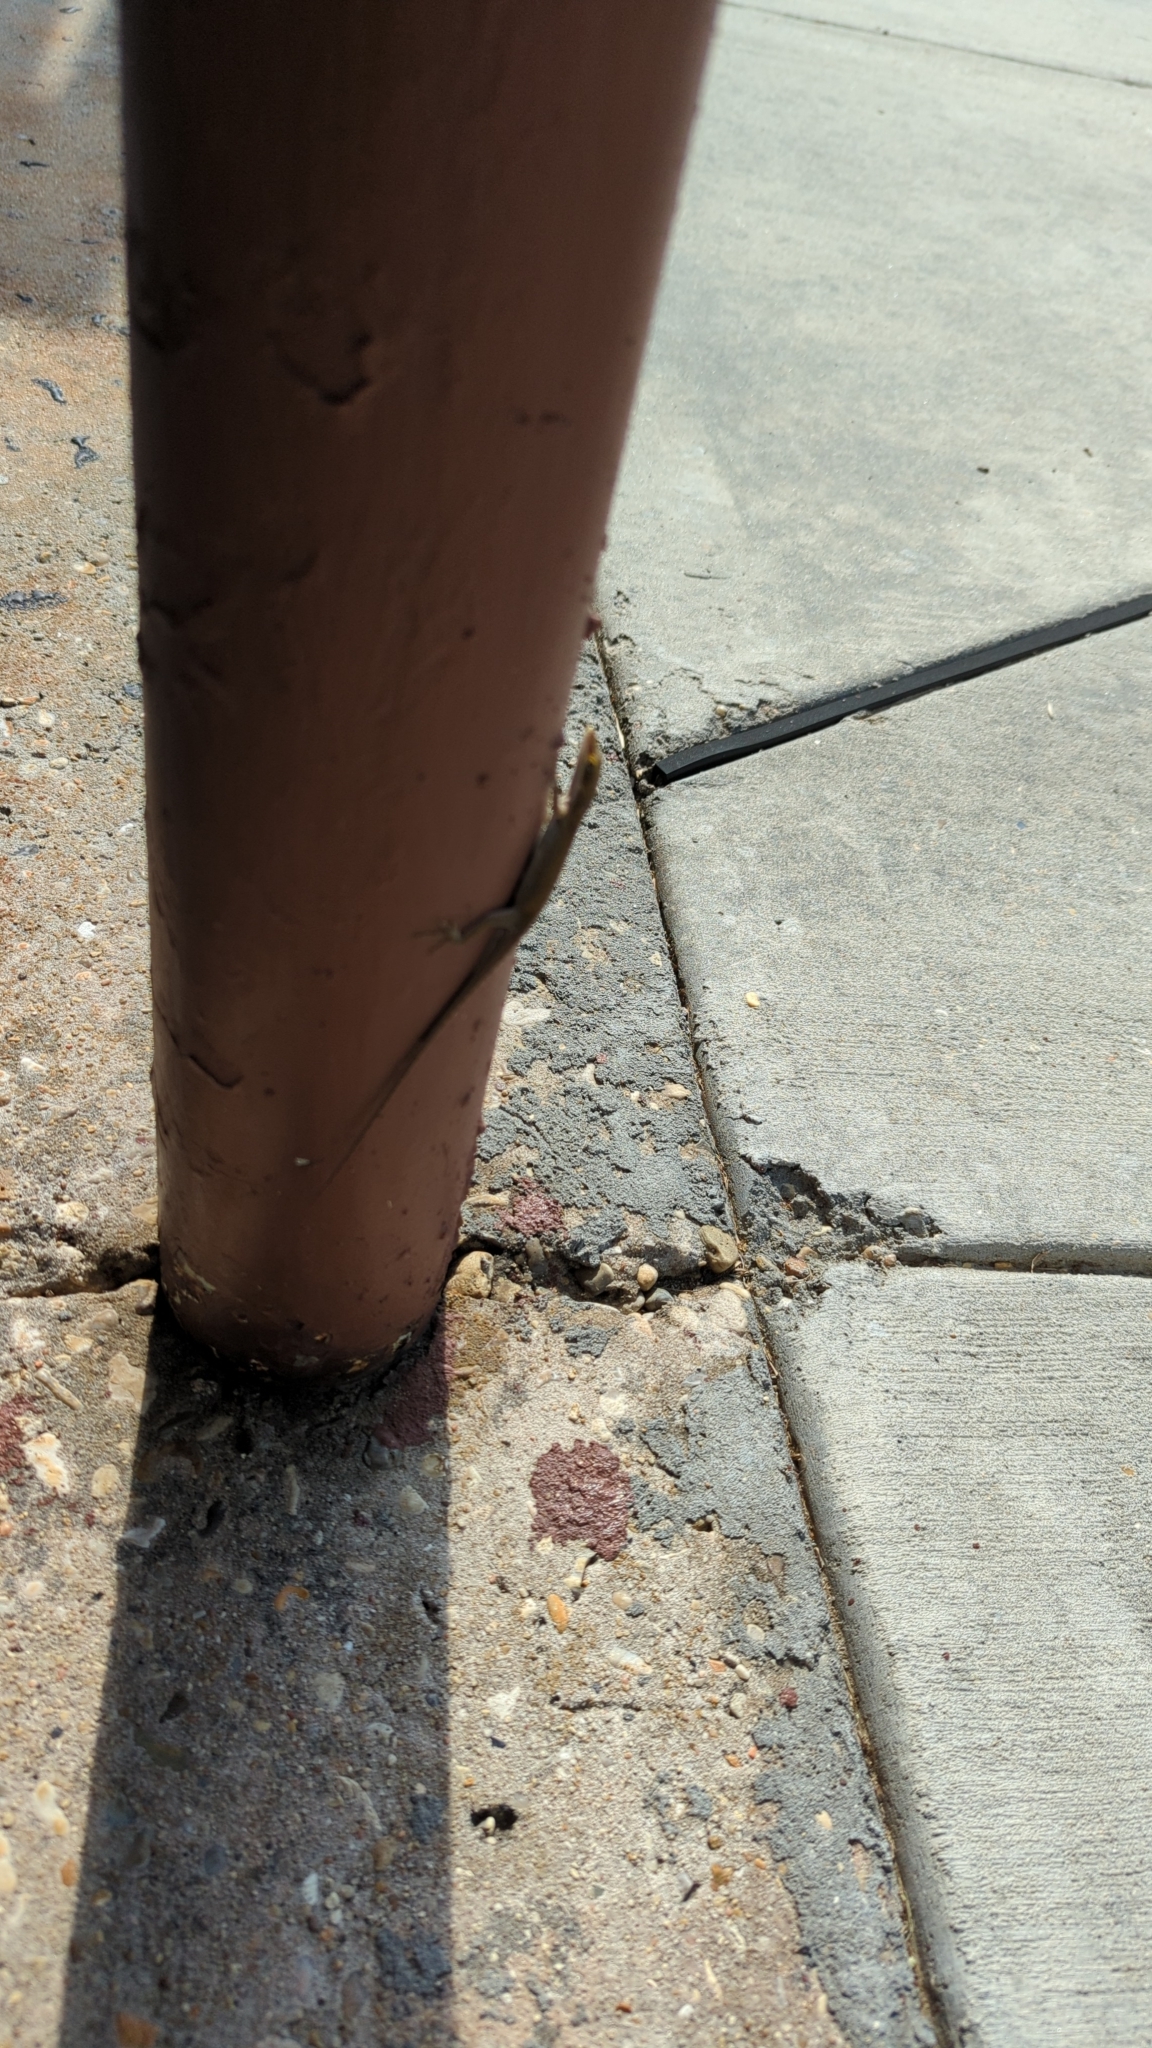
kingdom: Animalia
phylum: Chordata
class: Squamata
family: Dactyloidae
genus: Anolis
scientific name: Anolis carolinensis
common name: Green anole
